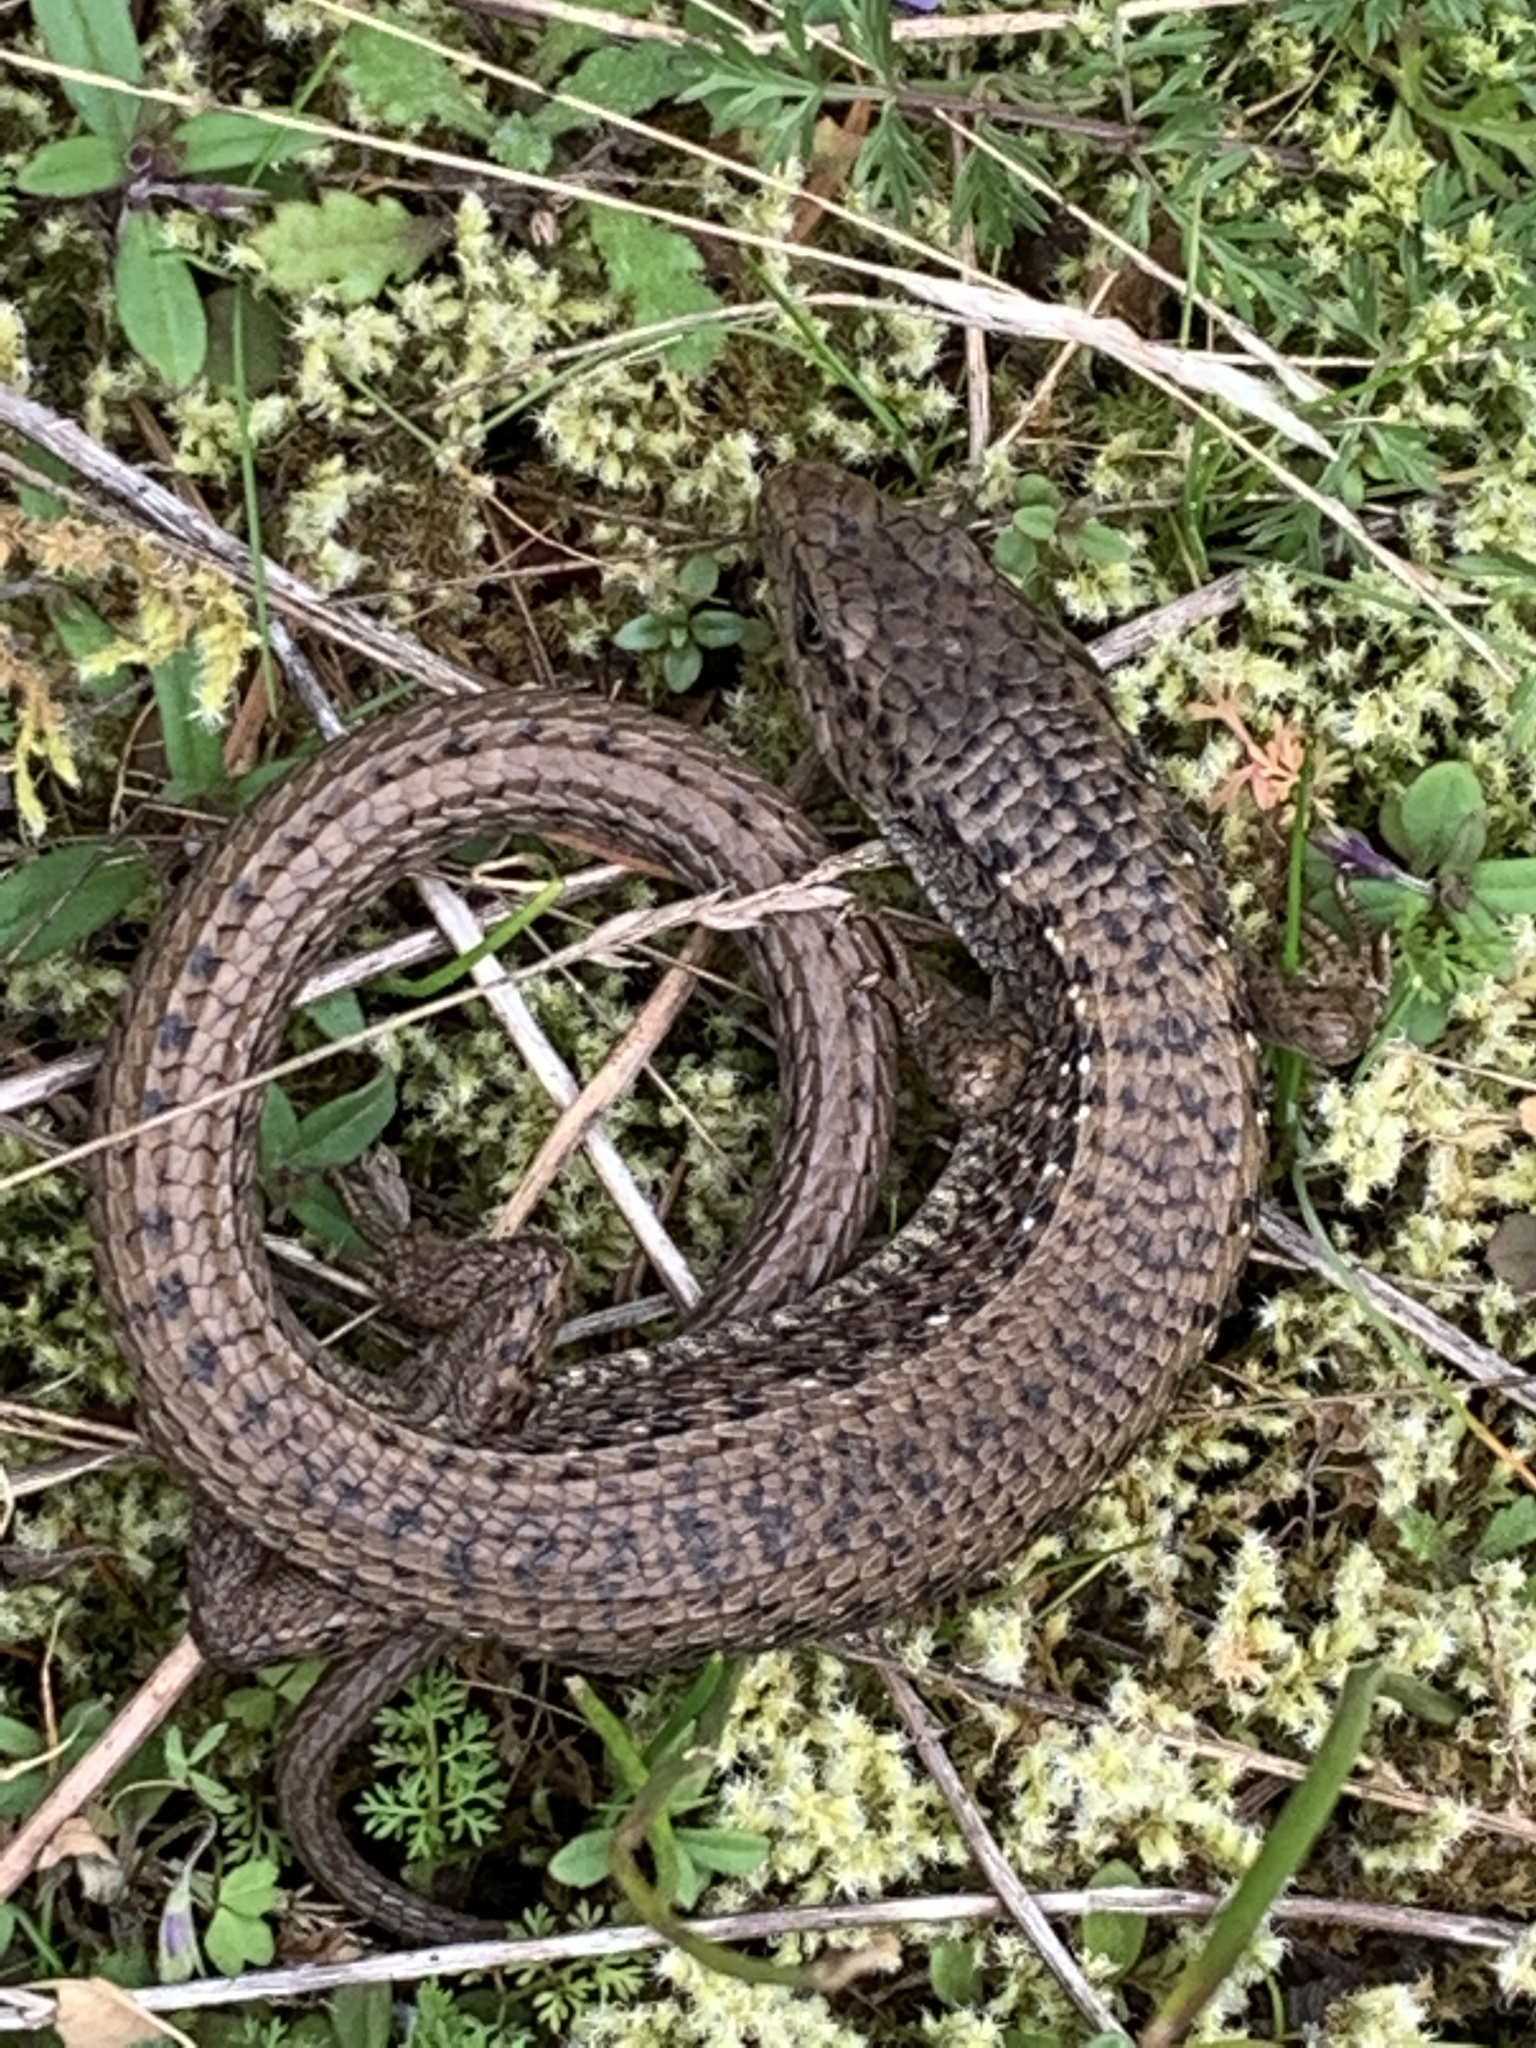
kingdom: Animalia
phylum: Chordata
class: Squamata
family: Anguidae
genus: Elgaria
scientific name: Elgaria coerulea
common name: Northern alligator lizard
